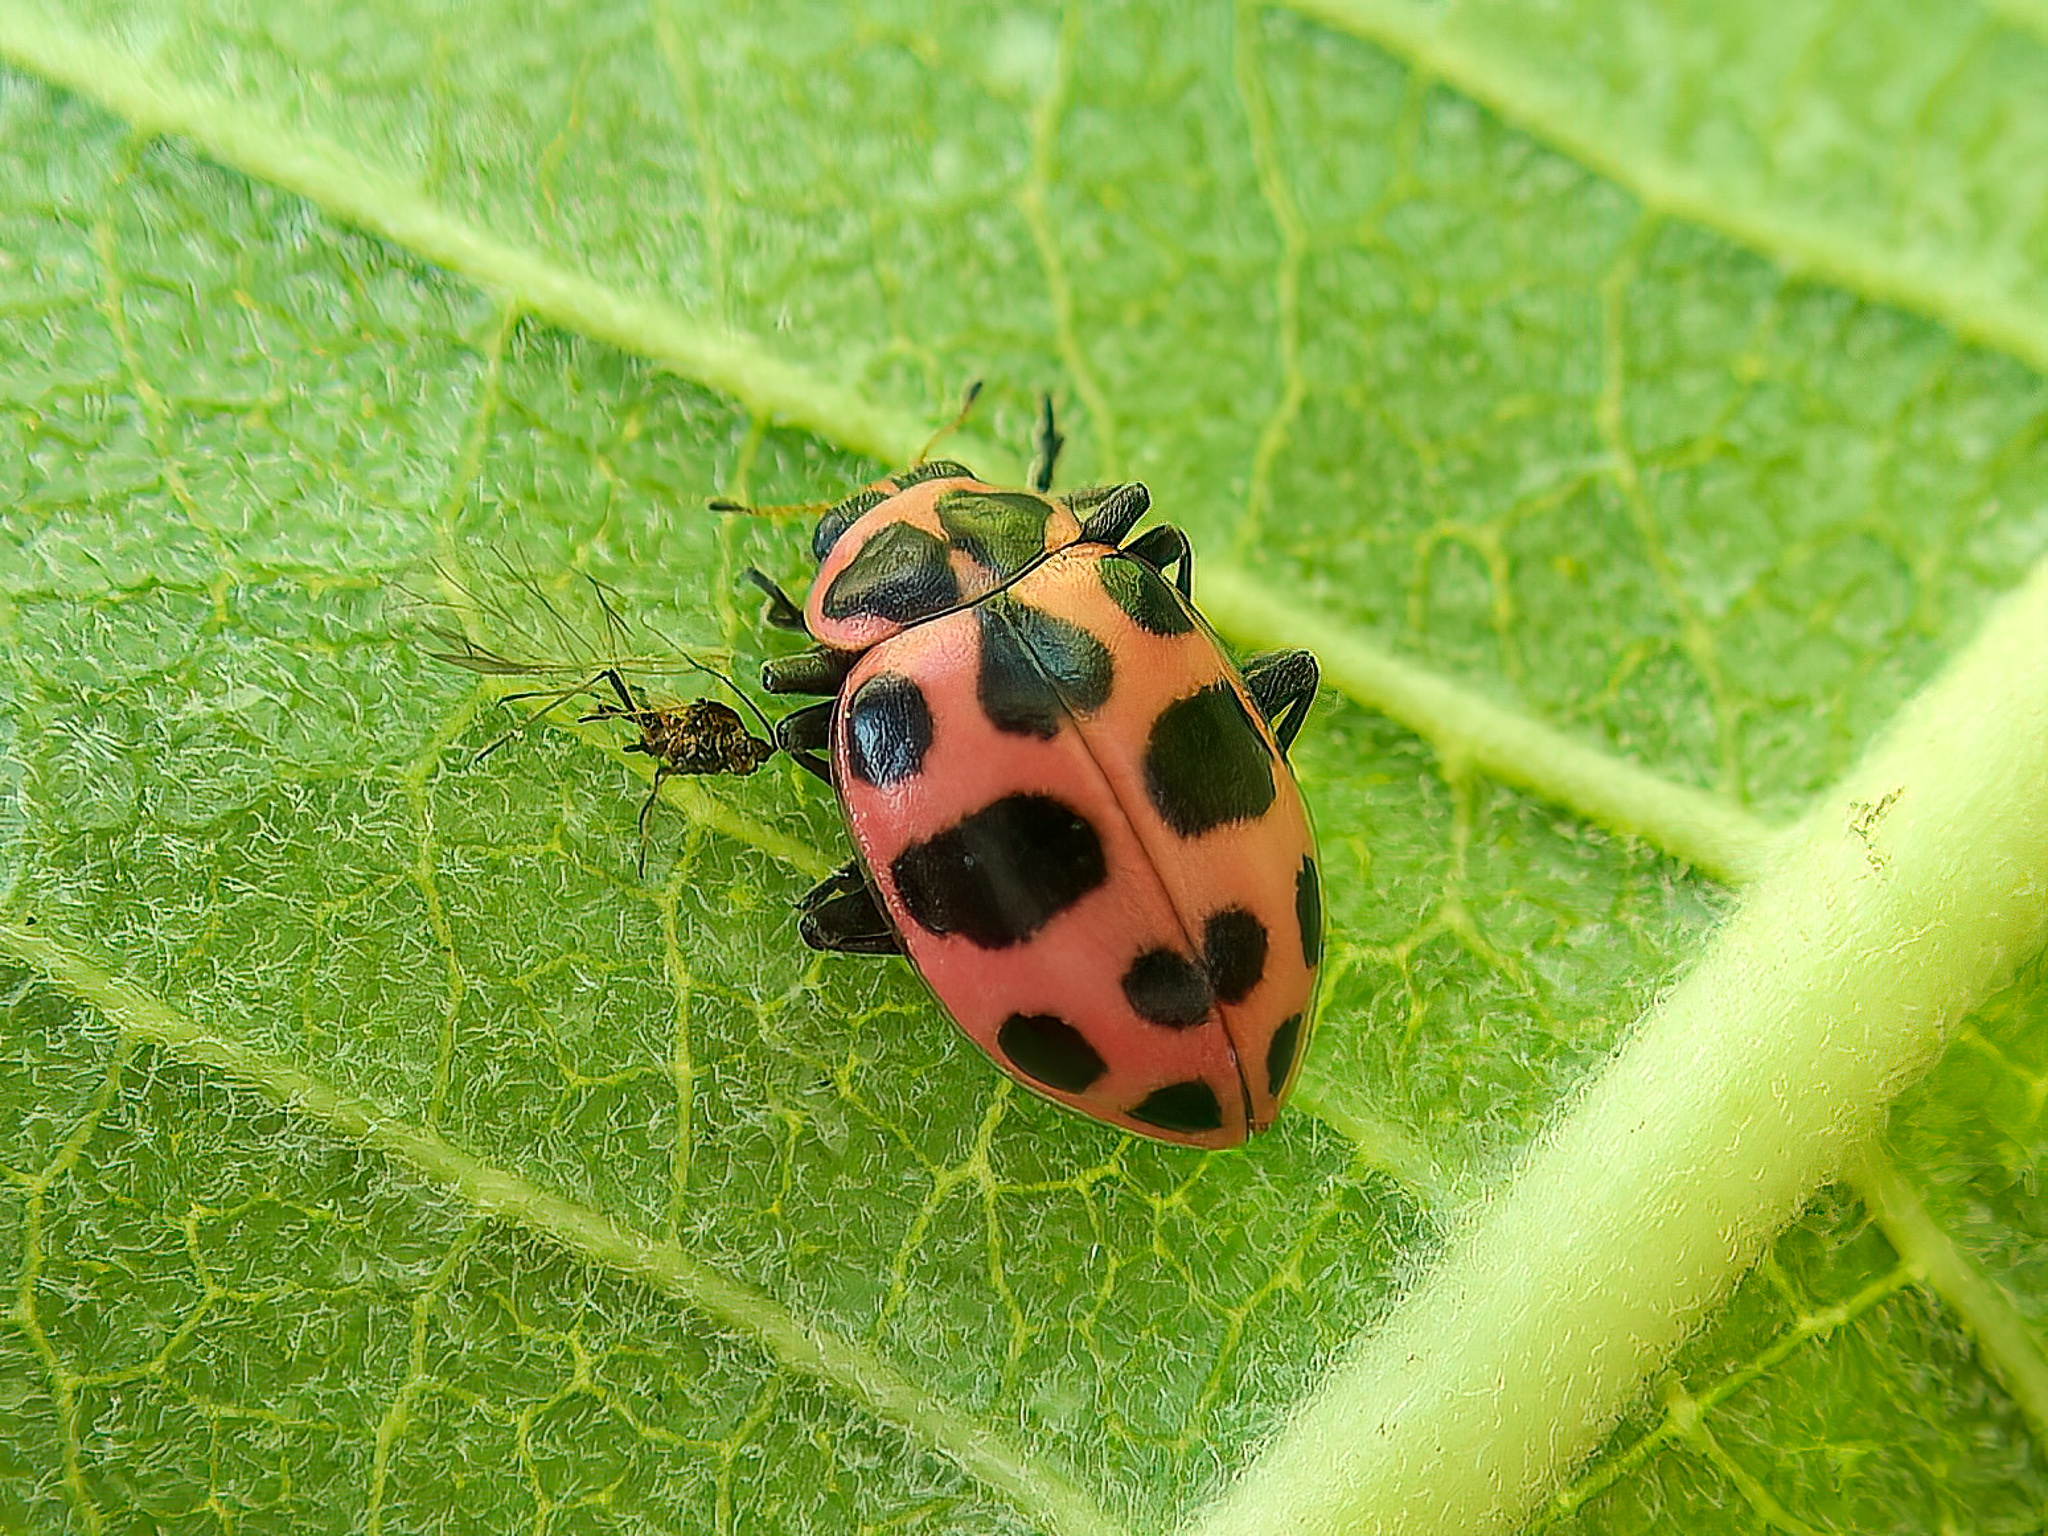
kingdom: Animalia
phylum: Arthropoda
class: Insecta
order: Coleoptera
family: Coccinellidae
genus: Coleomegilla
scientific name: Coleomegilla maculata
